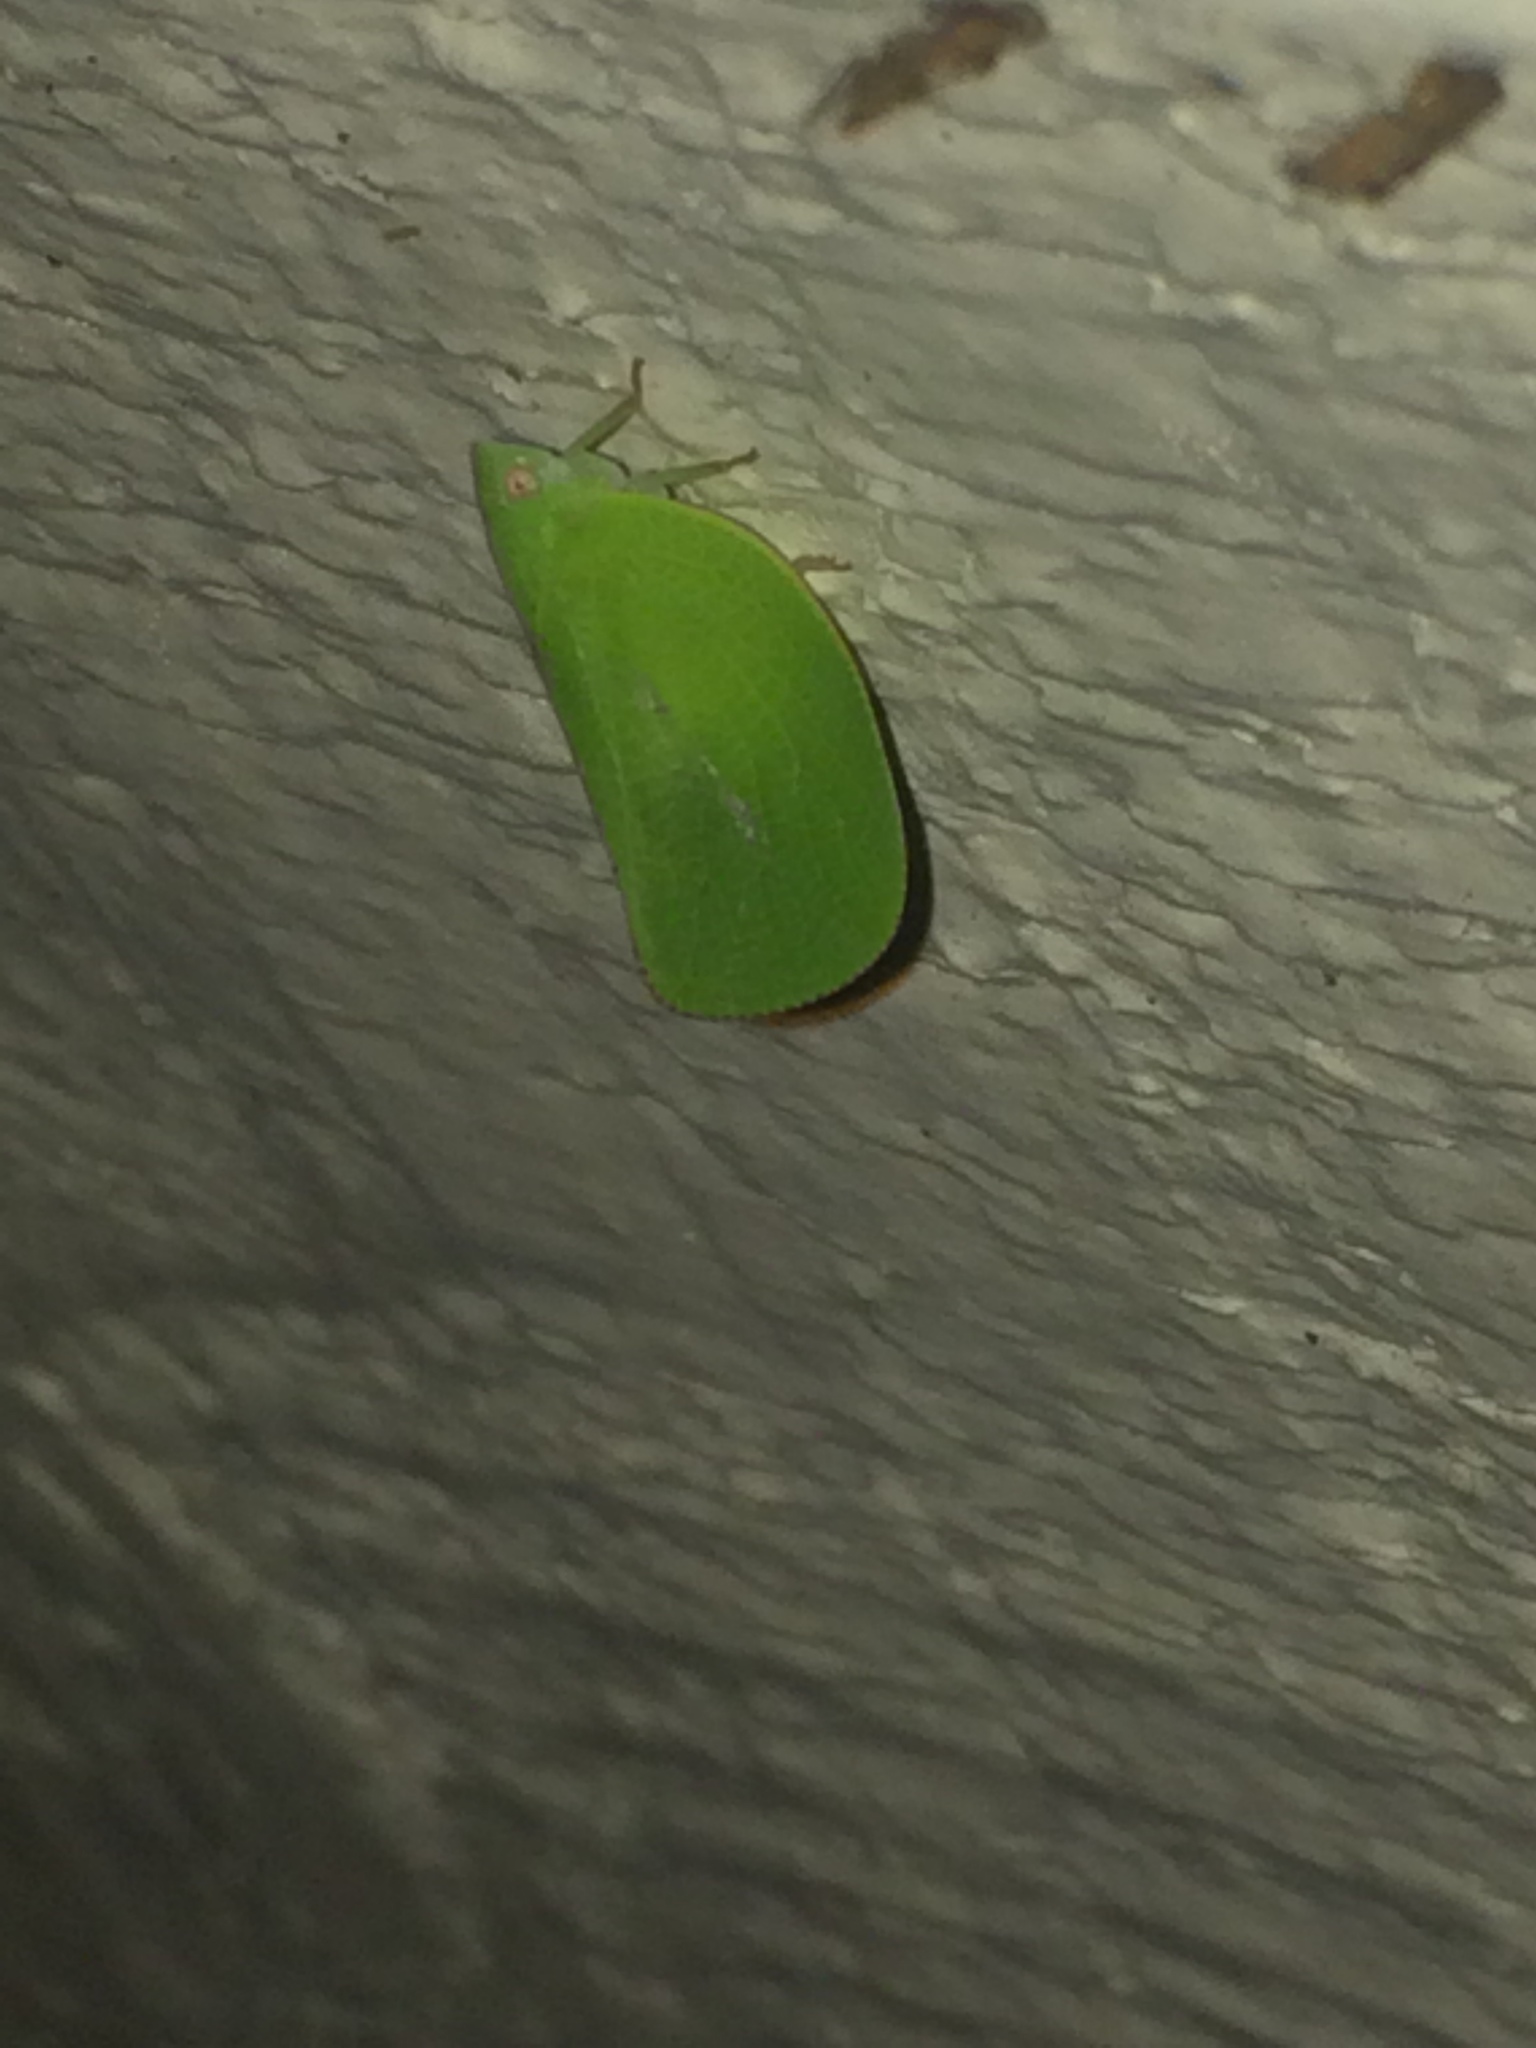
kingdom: Animalia
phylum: Arthropoda
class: Insecta
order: Hemiptera
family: Acanaloniidae
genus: Acanalonia
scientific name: Acanalonia conica
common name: Green cone-headed planthopper
